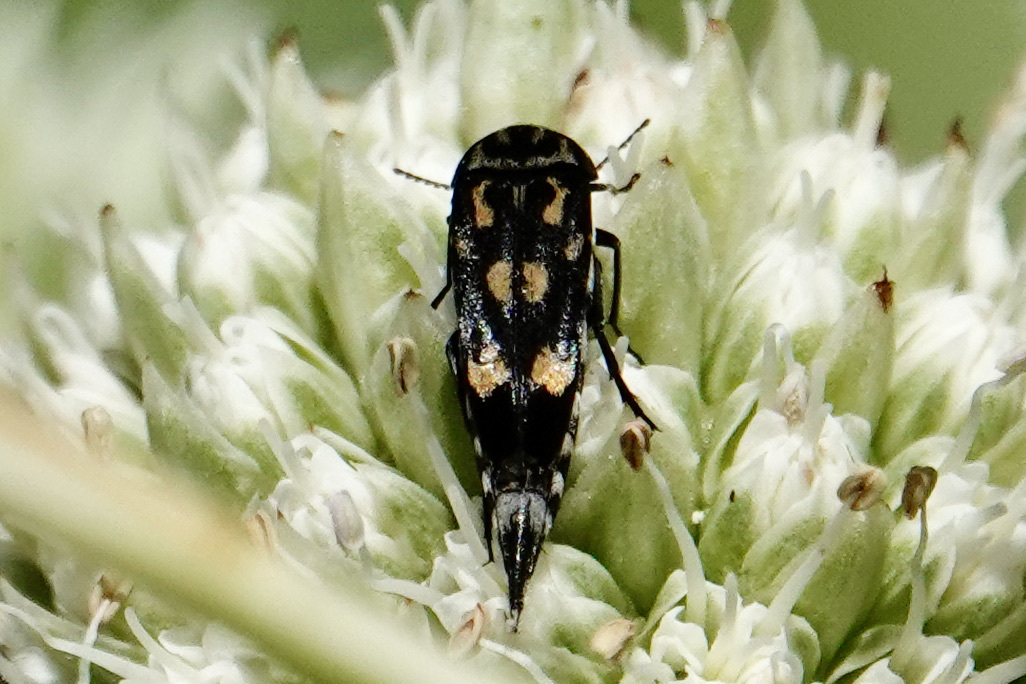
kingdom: Animalia
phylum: Arthropoda
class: Insecta
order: Coleoptera
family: Mordellidae
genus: Hoshihananomia
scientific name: Hoshihananomia octopunctata
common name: Eight-spotted tumbling flower beetle
